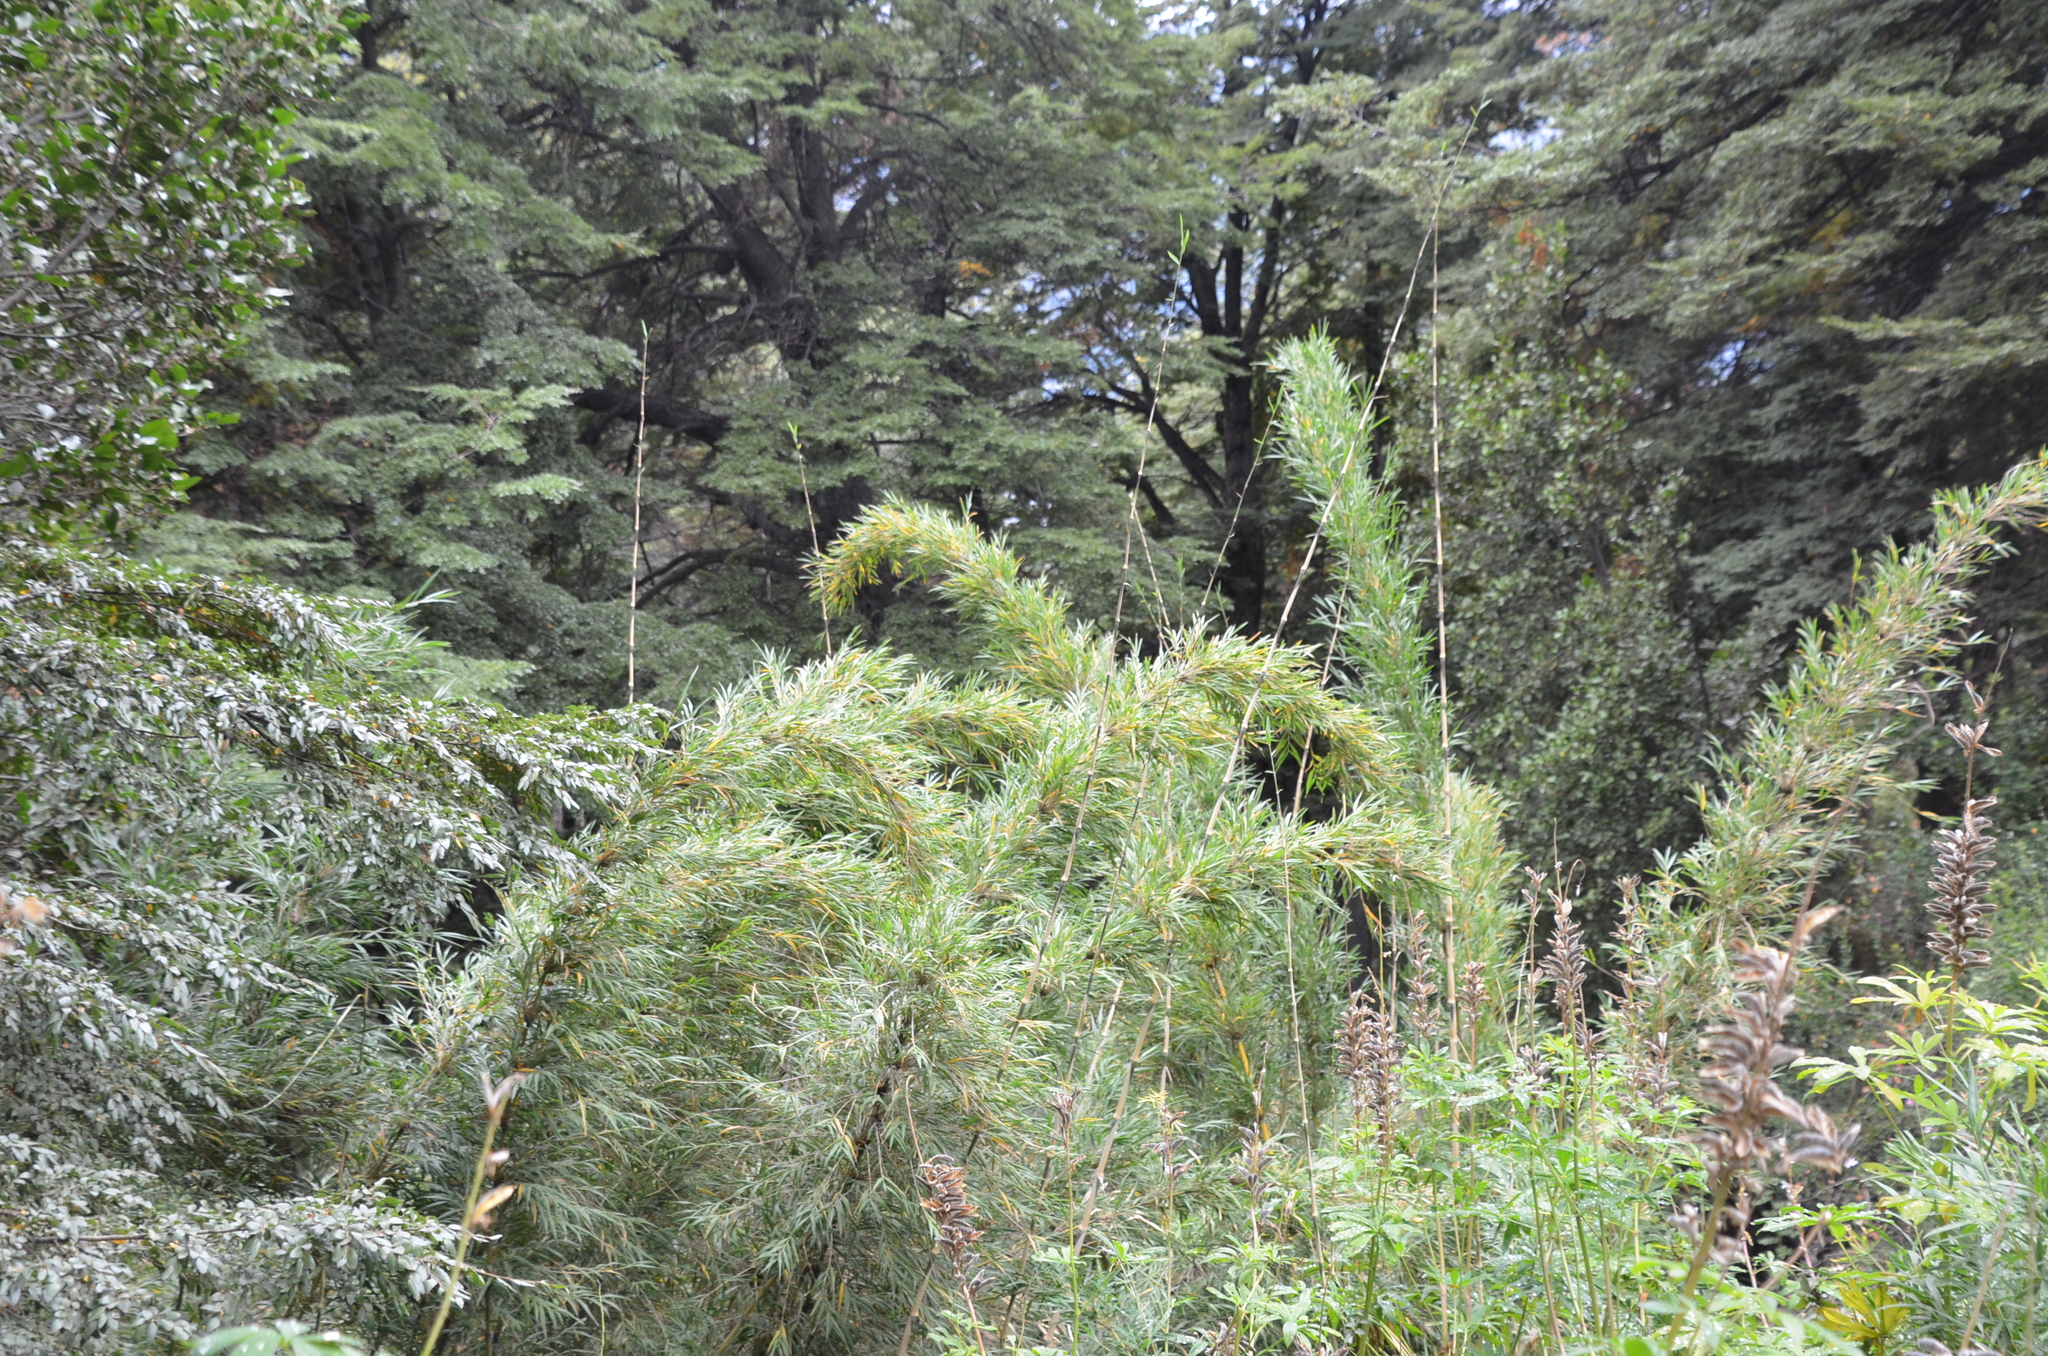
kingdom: Plantae
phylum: Tracheophyta
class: Liliopsida
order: Poales
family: Poaceae
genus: Chusquea
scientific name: Chusquea culeou
